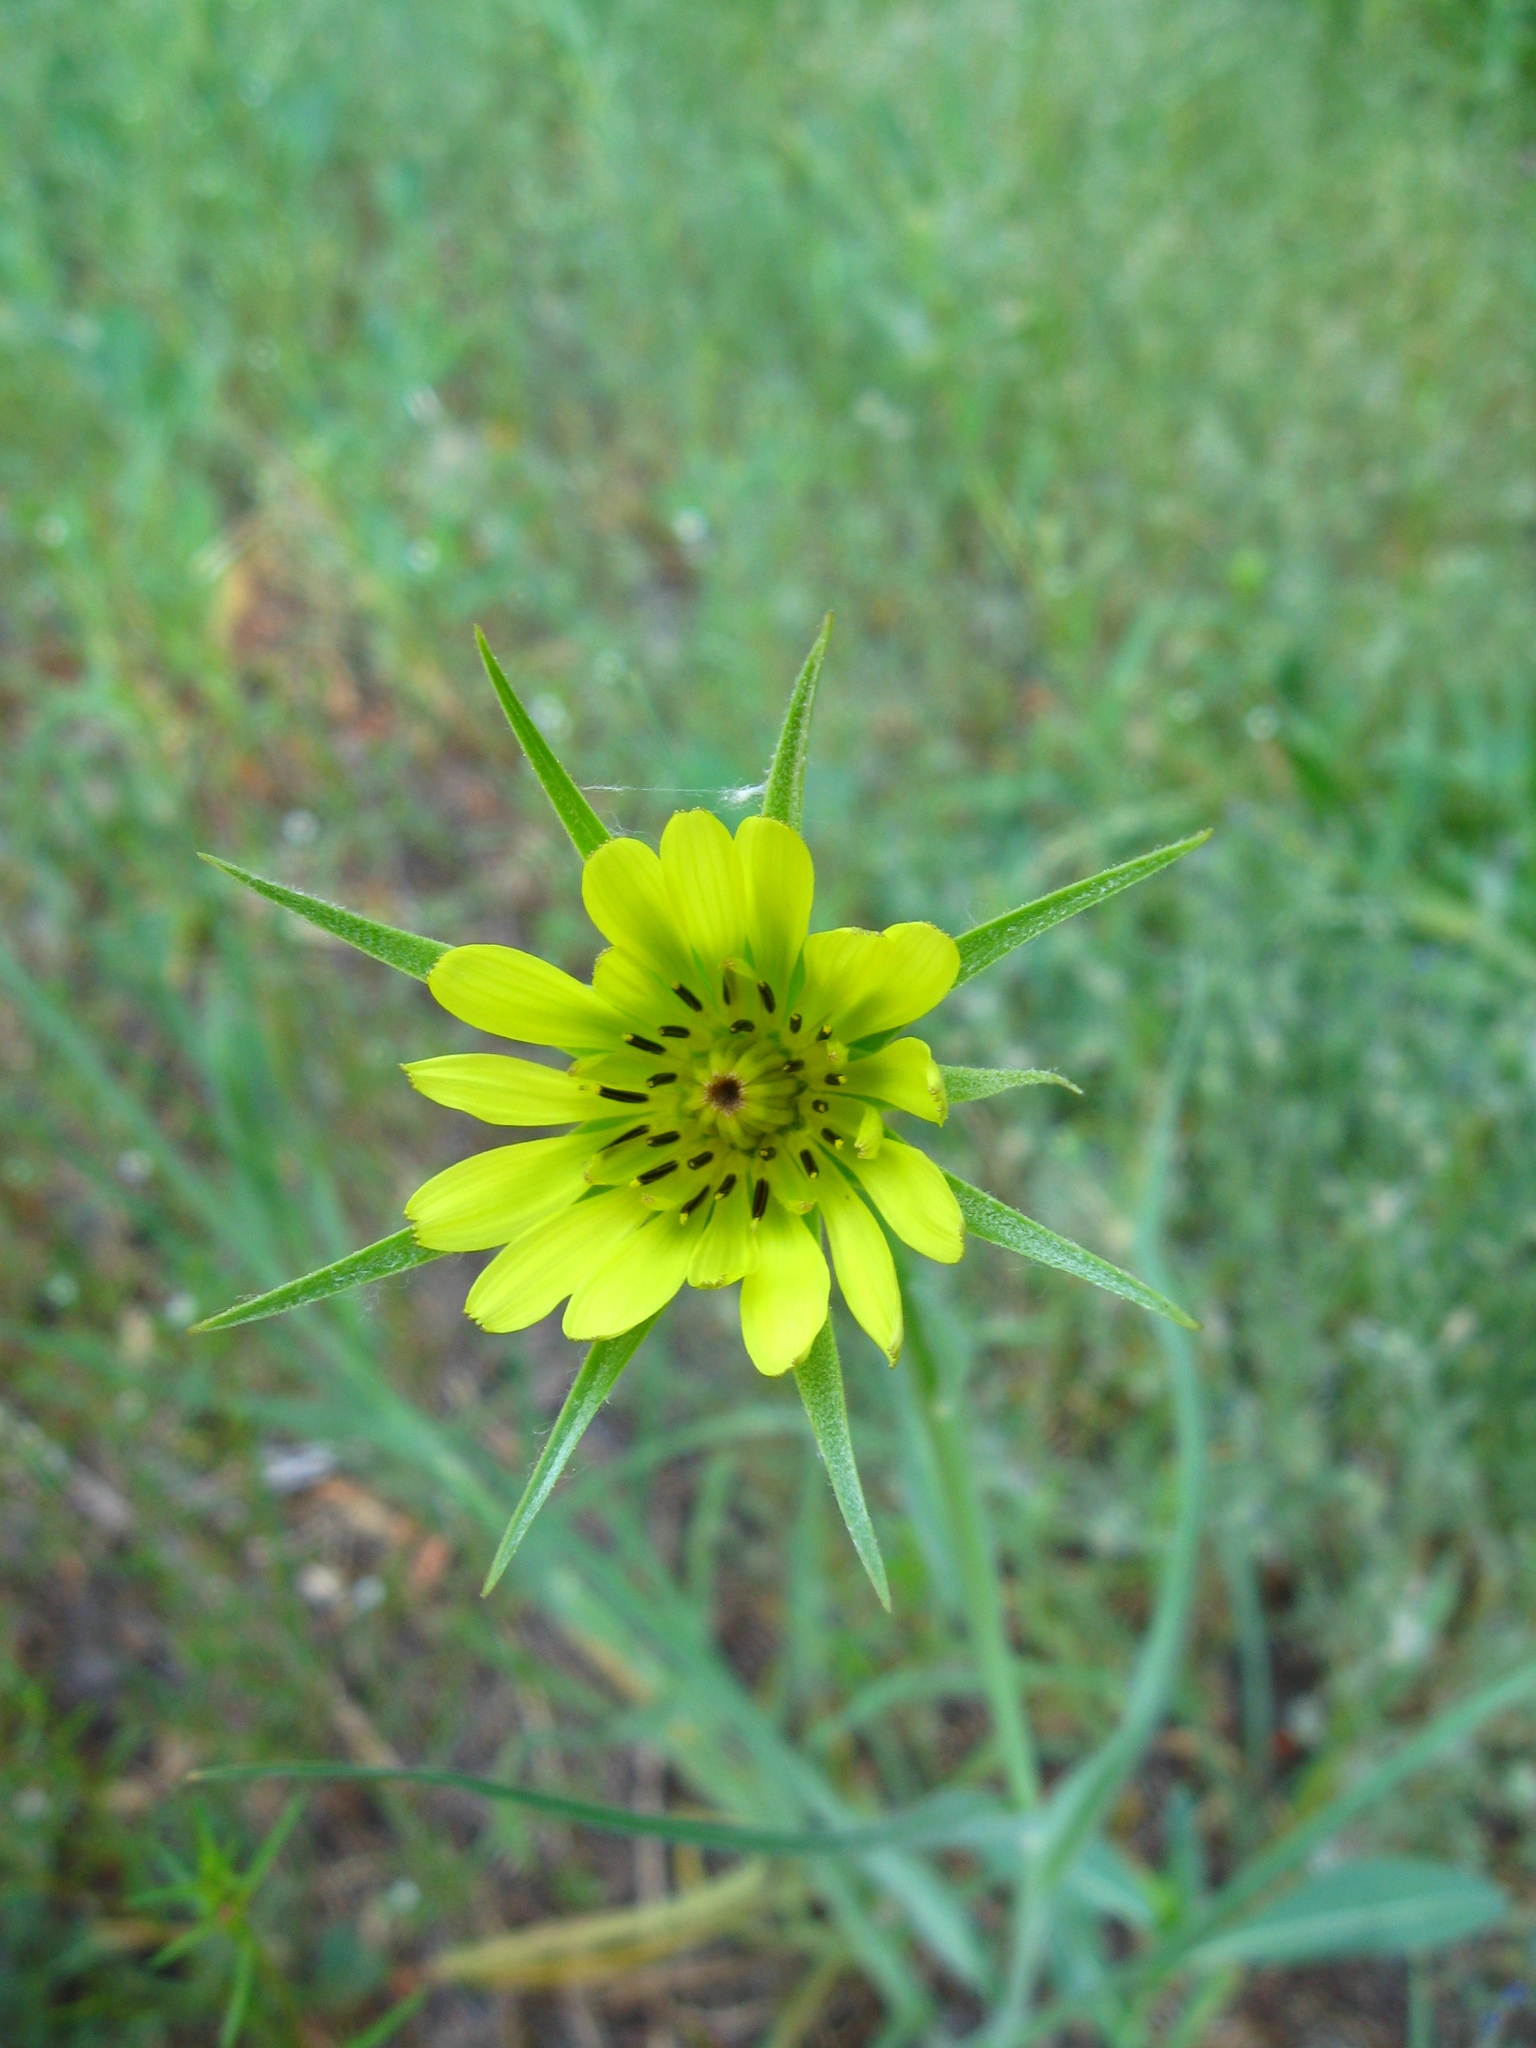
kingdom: Plantae
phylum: Tracheophyta
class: Magnoliopsida
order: Asterales
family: Asteraceae
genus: Tragopogon
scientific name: Tragopogon dubius
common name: Yellow salsify
